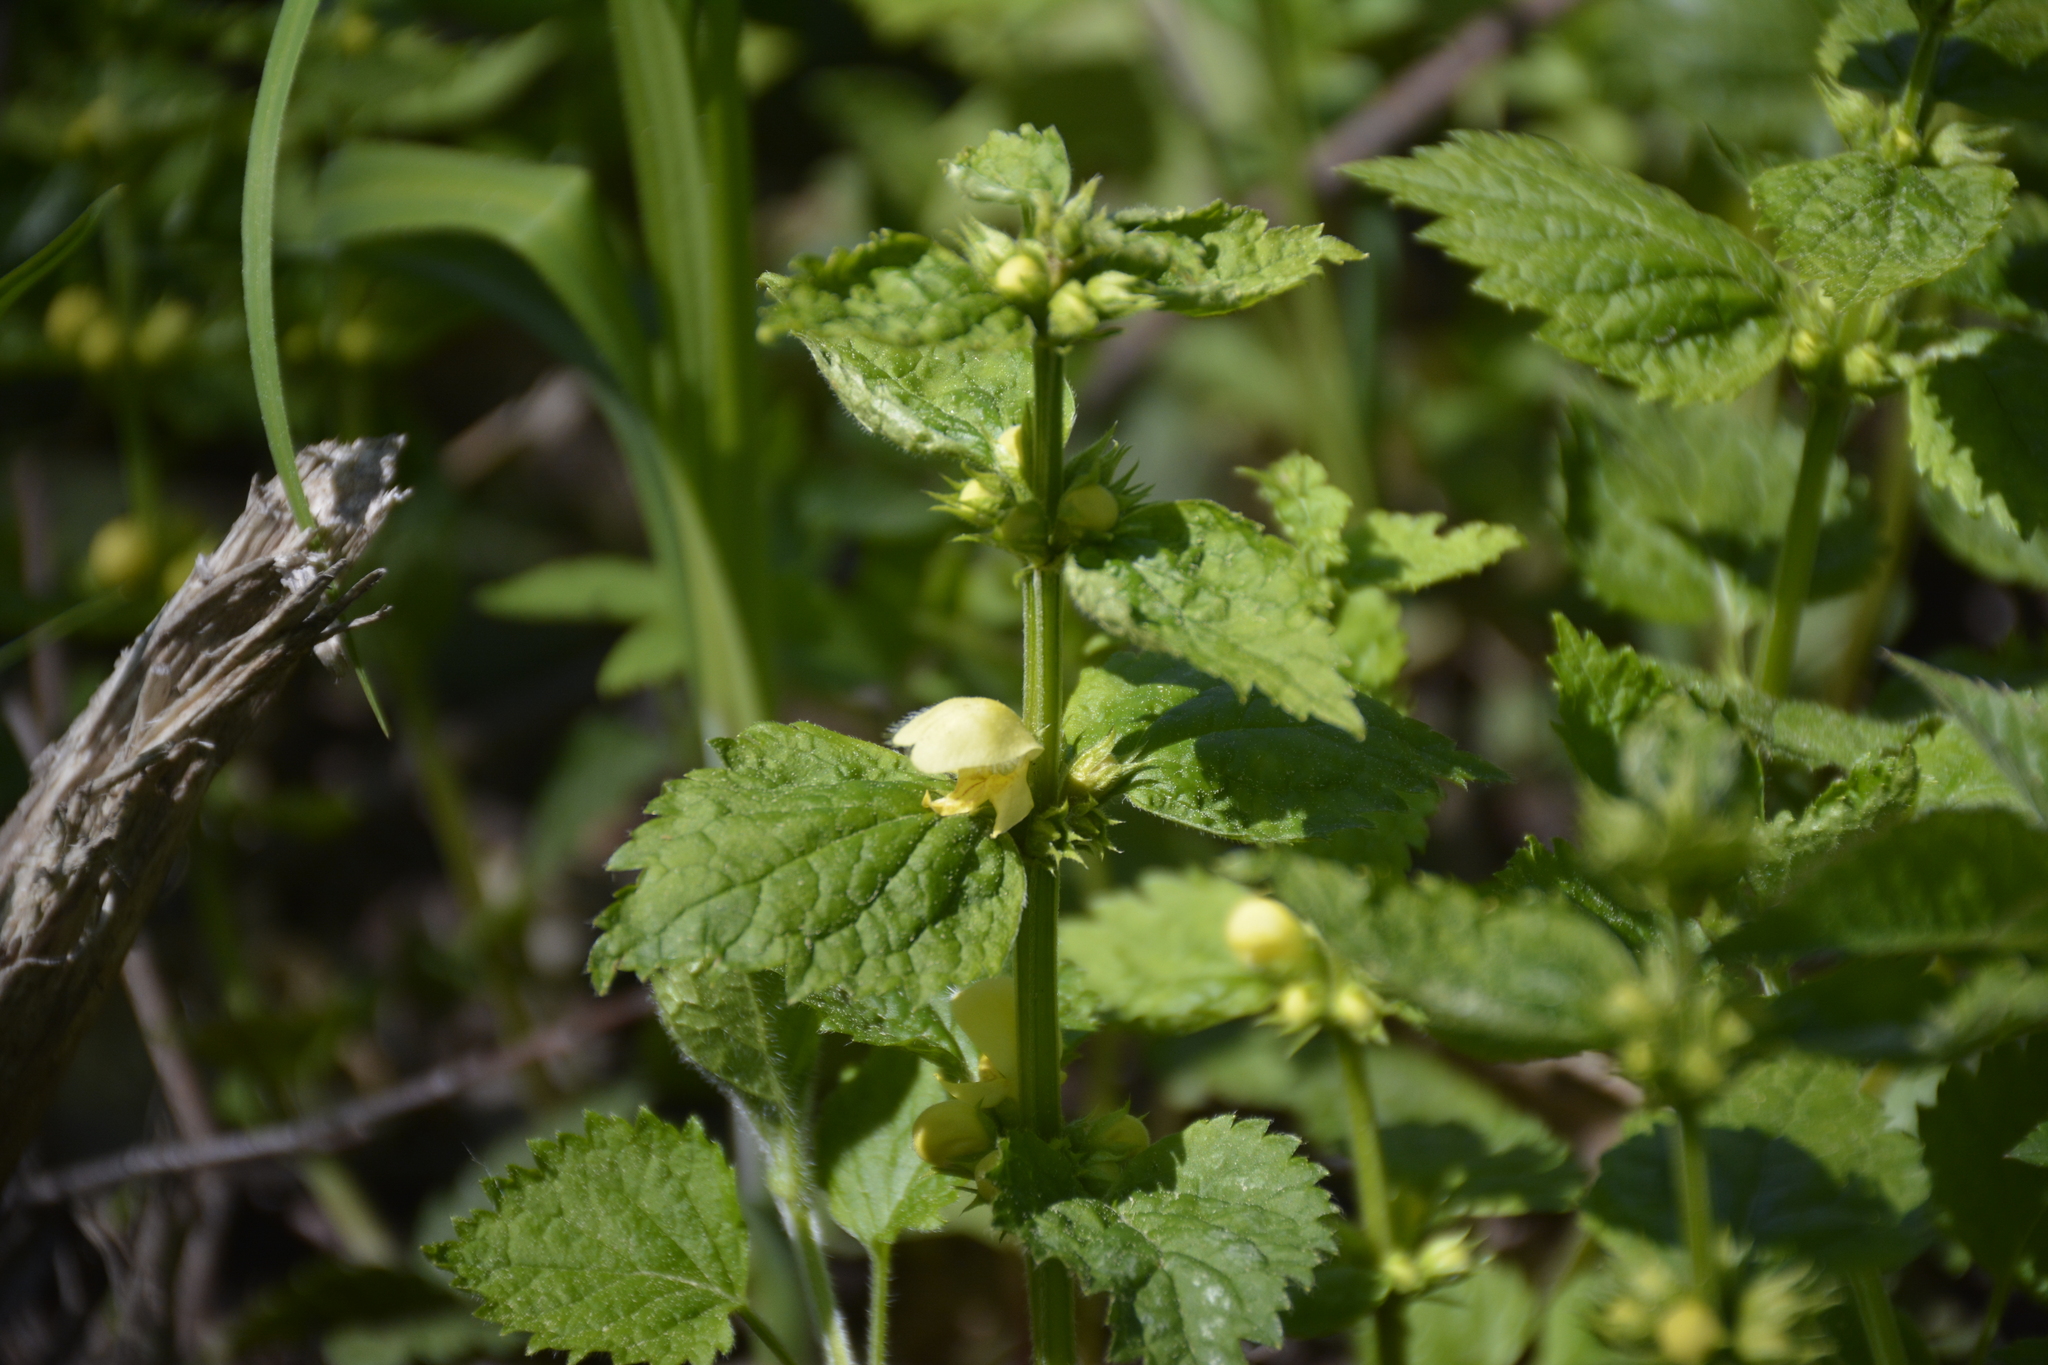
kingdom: Plantae
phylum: Tracheophyta
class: Magnoliopsida
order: Lamiales
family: Lamiaceae
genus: Lamium
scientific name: Lamium galeobdolon
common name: Yellow archangel
